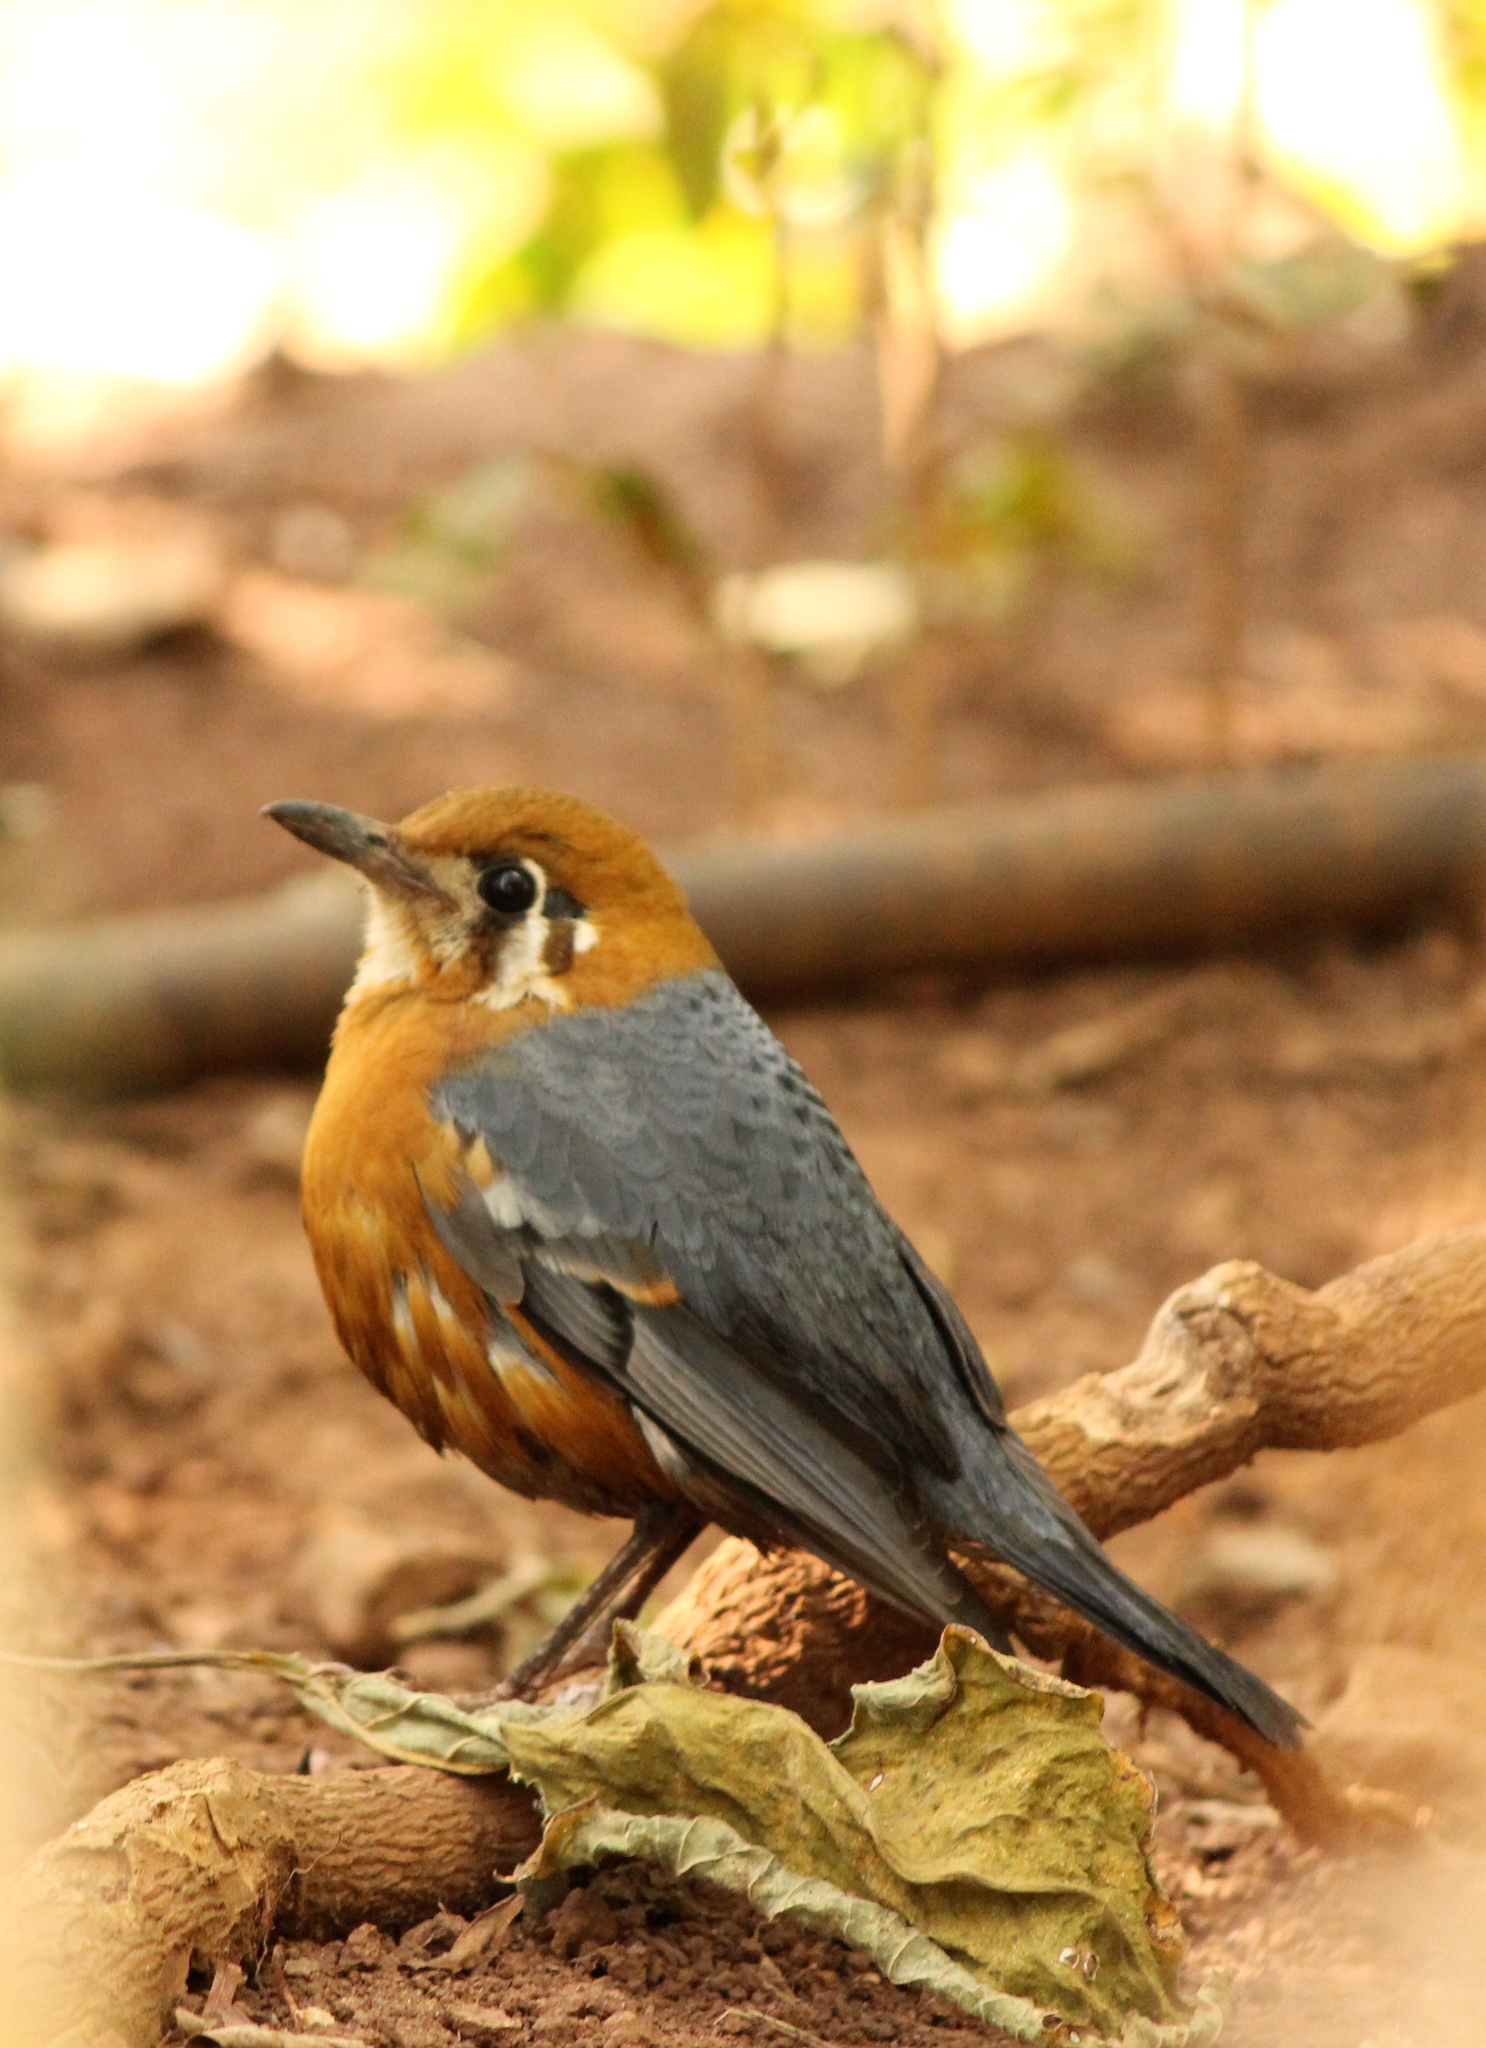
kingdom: Animalia
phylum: Chordata
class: Aves
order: Passeriformes
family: Turdidae
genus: Geokichla
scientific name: Geokichla citrina
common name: Orange-headed thrush
